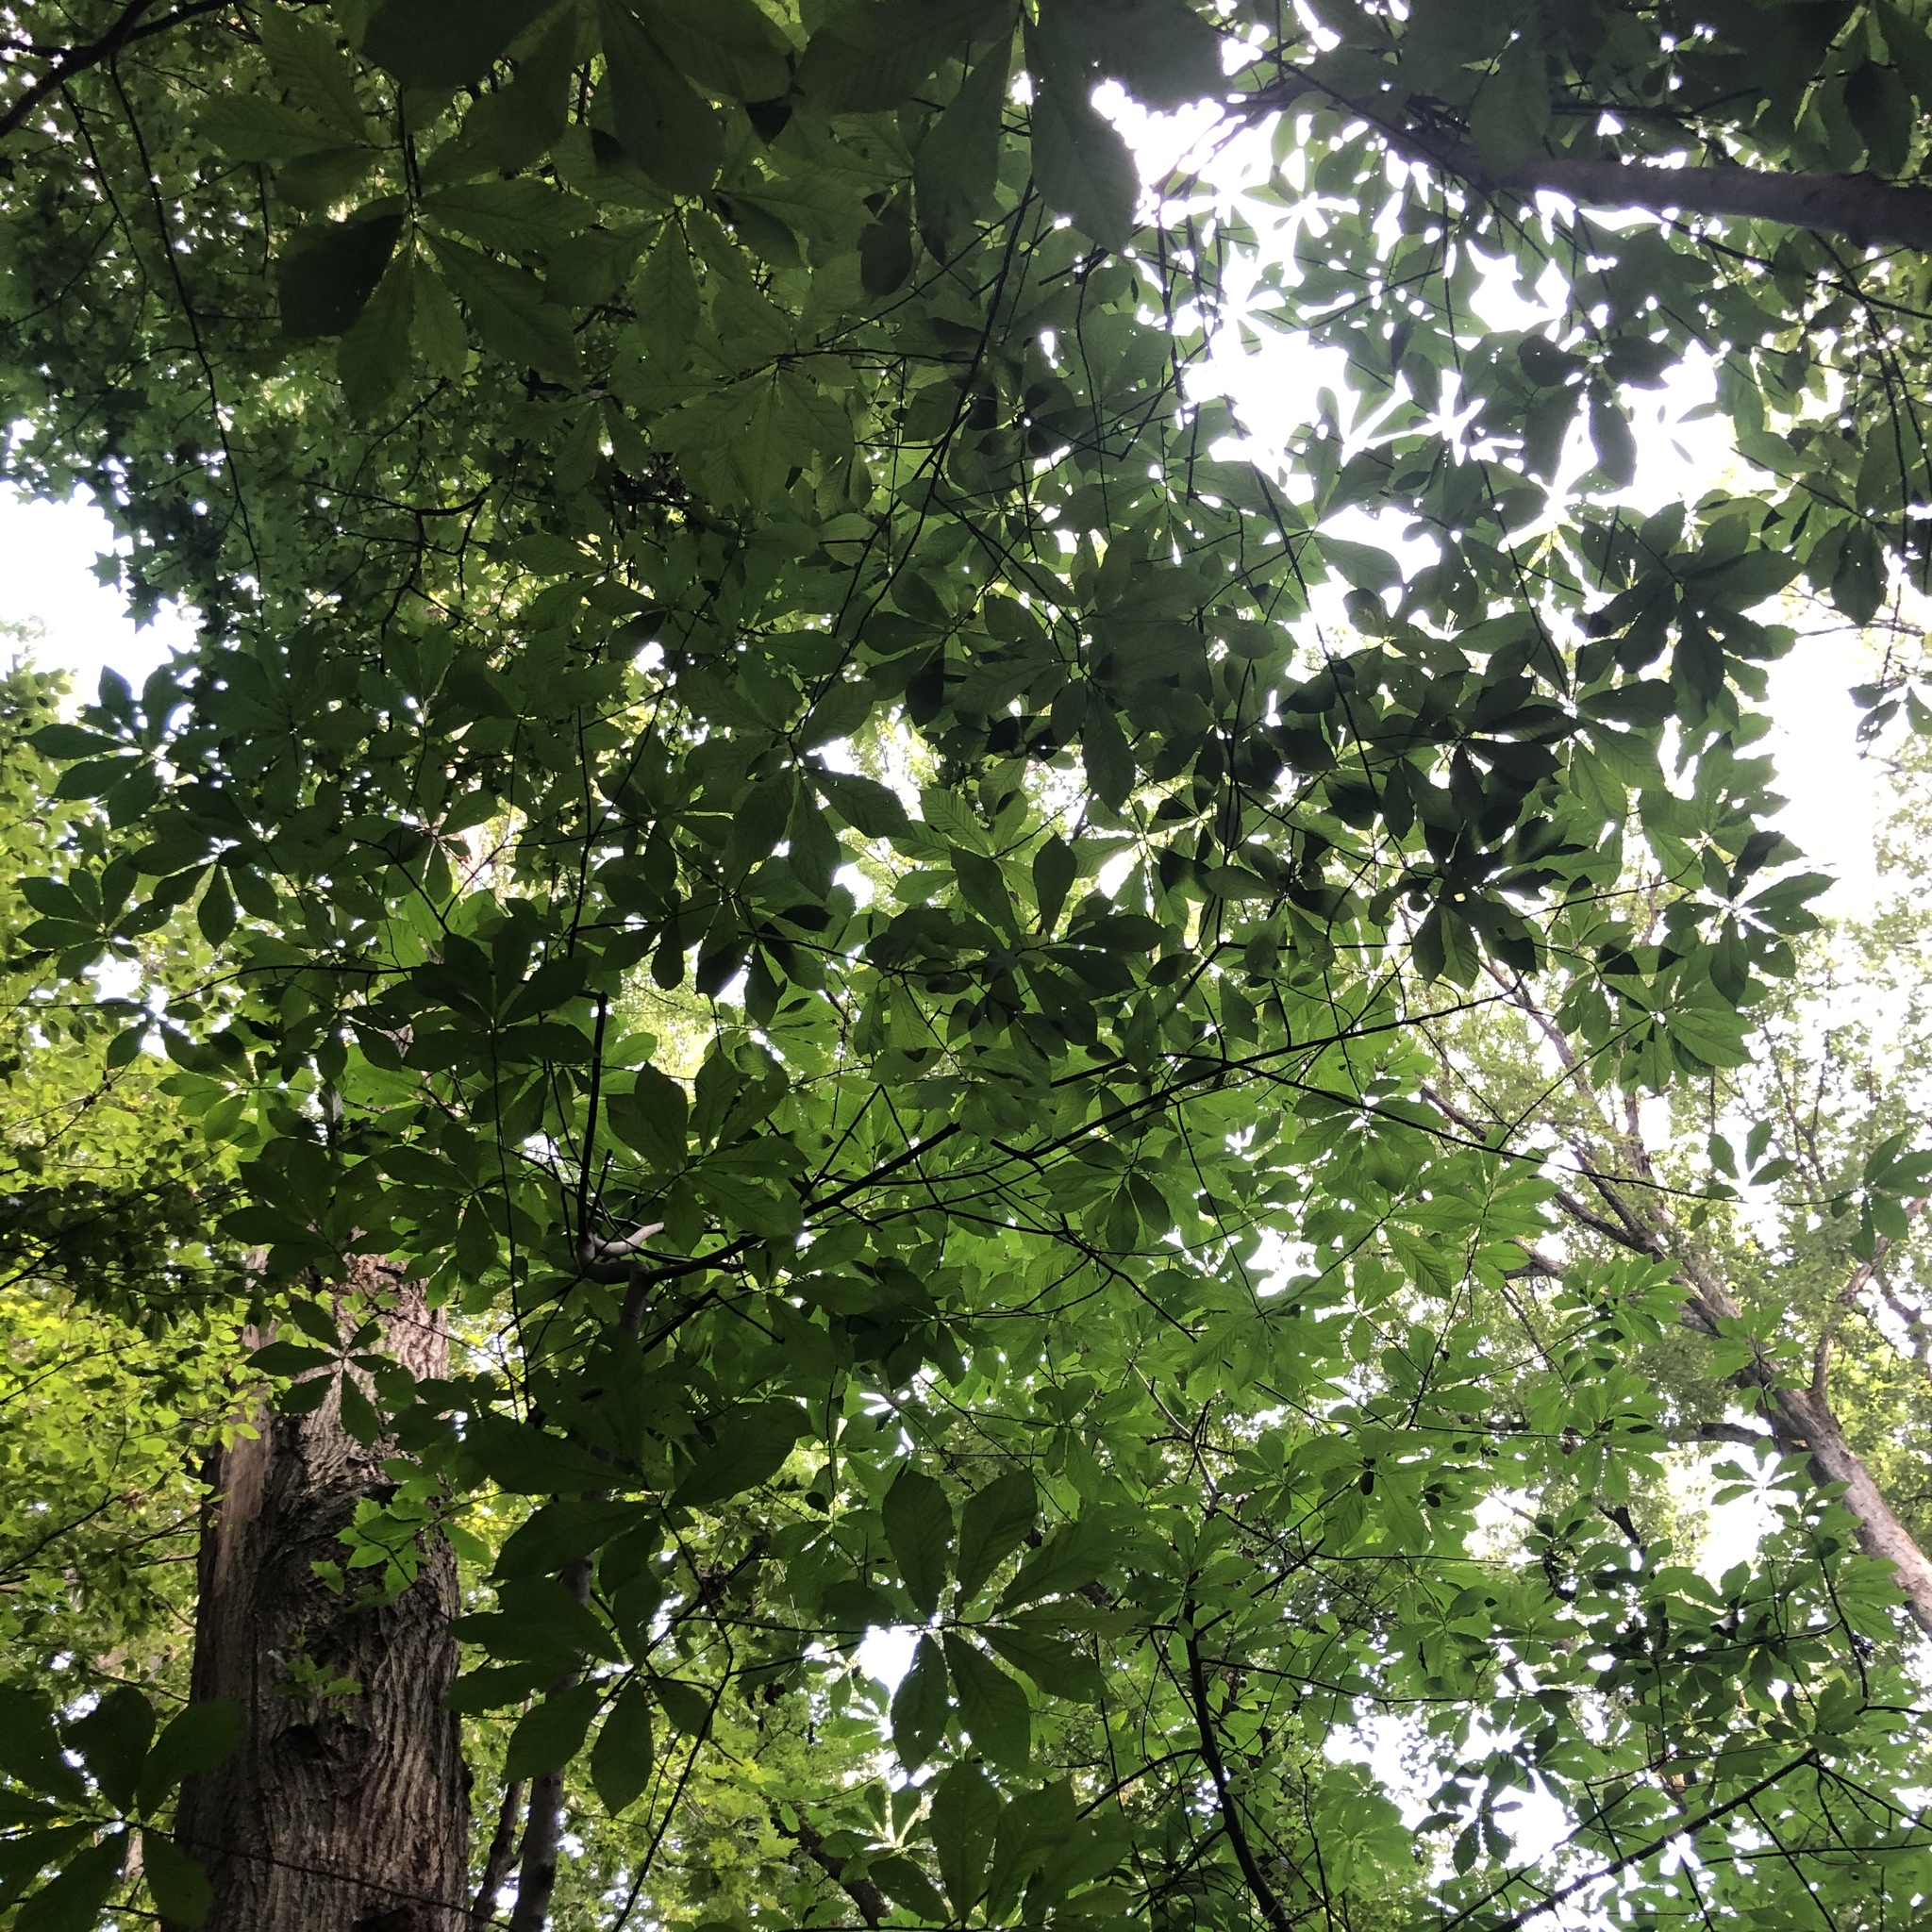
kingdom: Plantae
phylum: Tracheophyta
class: Magnoliopsida
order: Magnoliales
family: Annonaceae
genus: Asimina
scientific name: Asimina triloba
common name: Dog-banana
